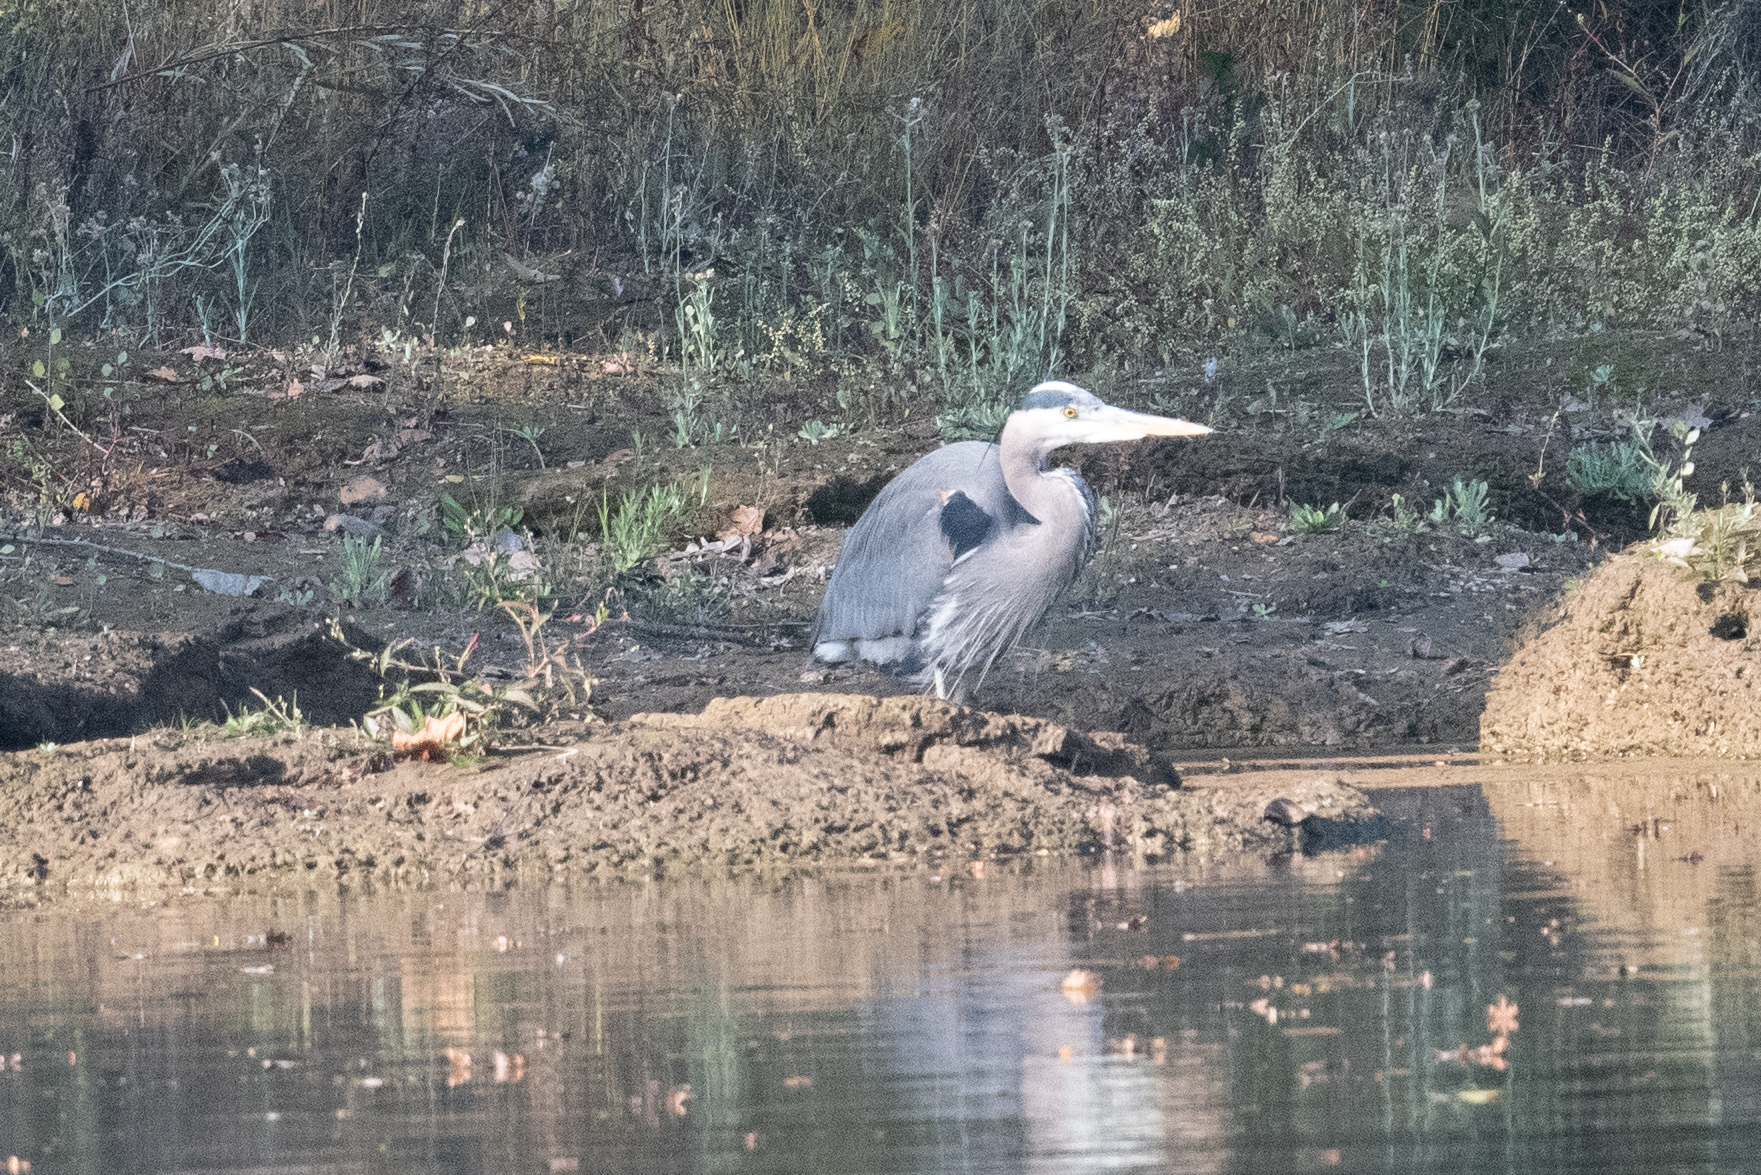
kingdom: Animalia
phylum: Chordata
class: Aves
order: Pelecaniformes
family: Ardeidae
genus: Ardea
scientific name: Ardea herodias
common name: Great blue heron
